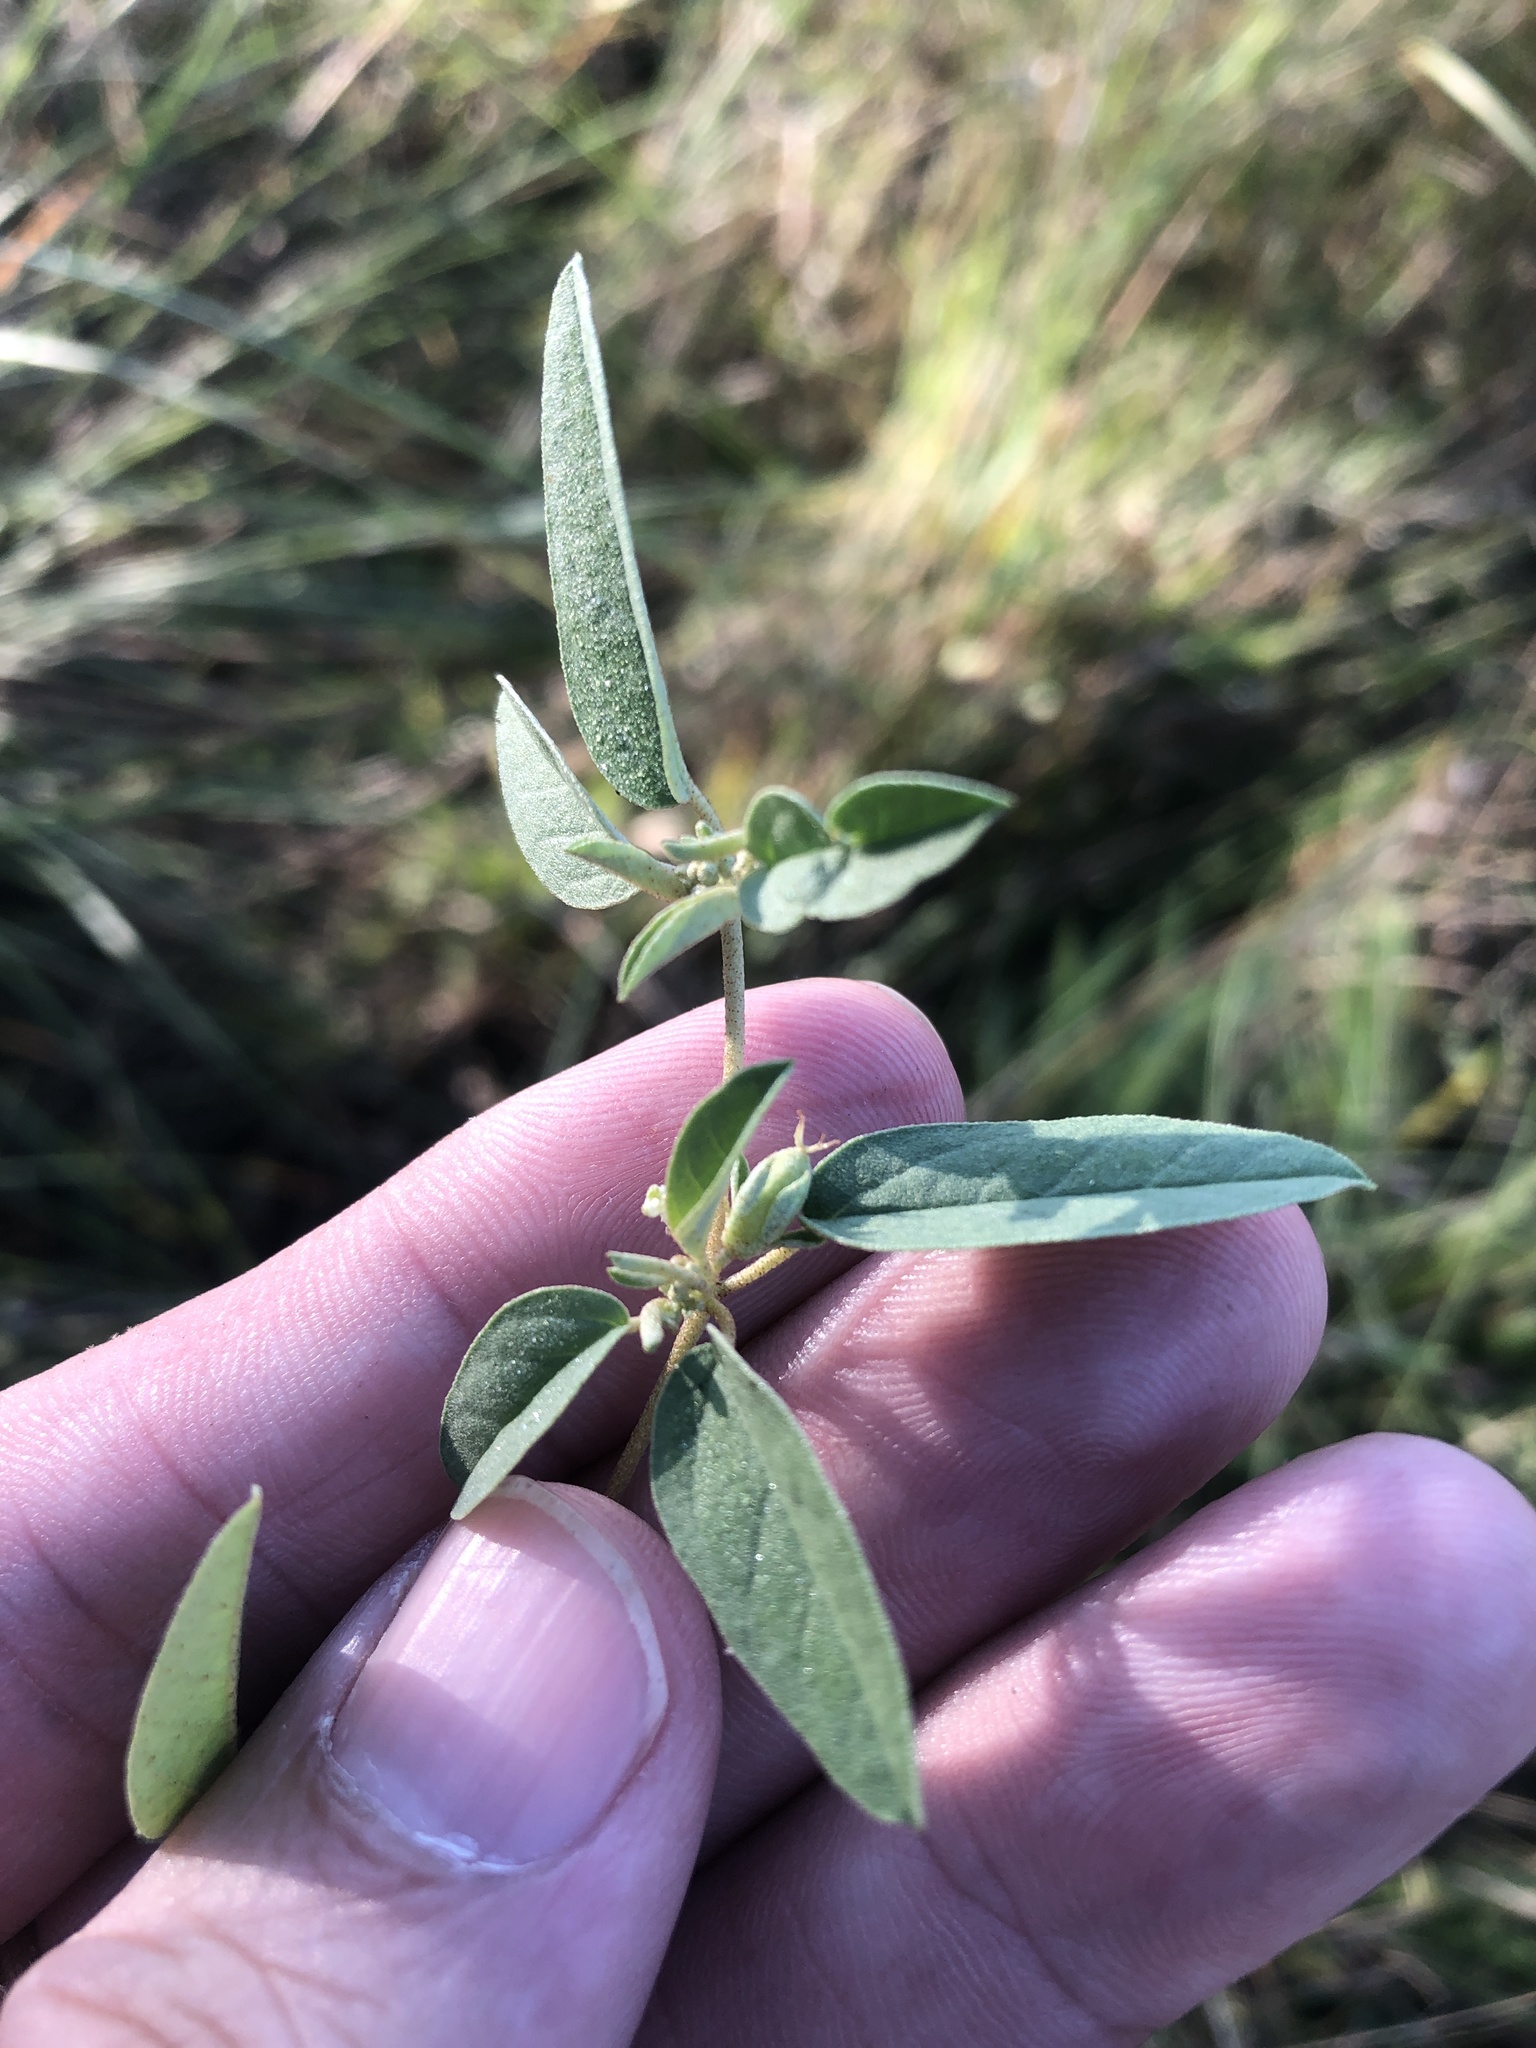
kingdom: Plantae
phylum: Tracheophyta
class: Magnoliopsida
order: Malpighiales
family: Euphorbiaceae
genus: Croton
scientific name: Croton monanthogynus
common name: One-seed croton
